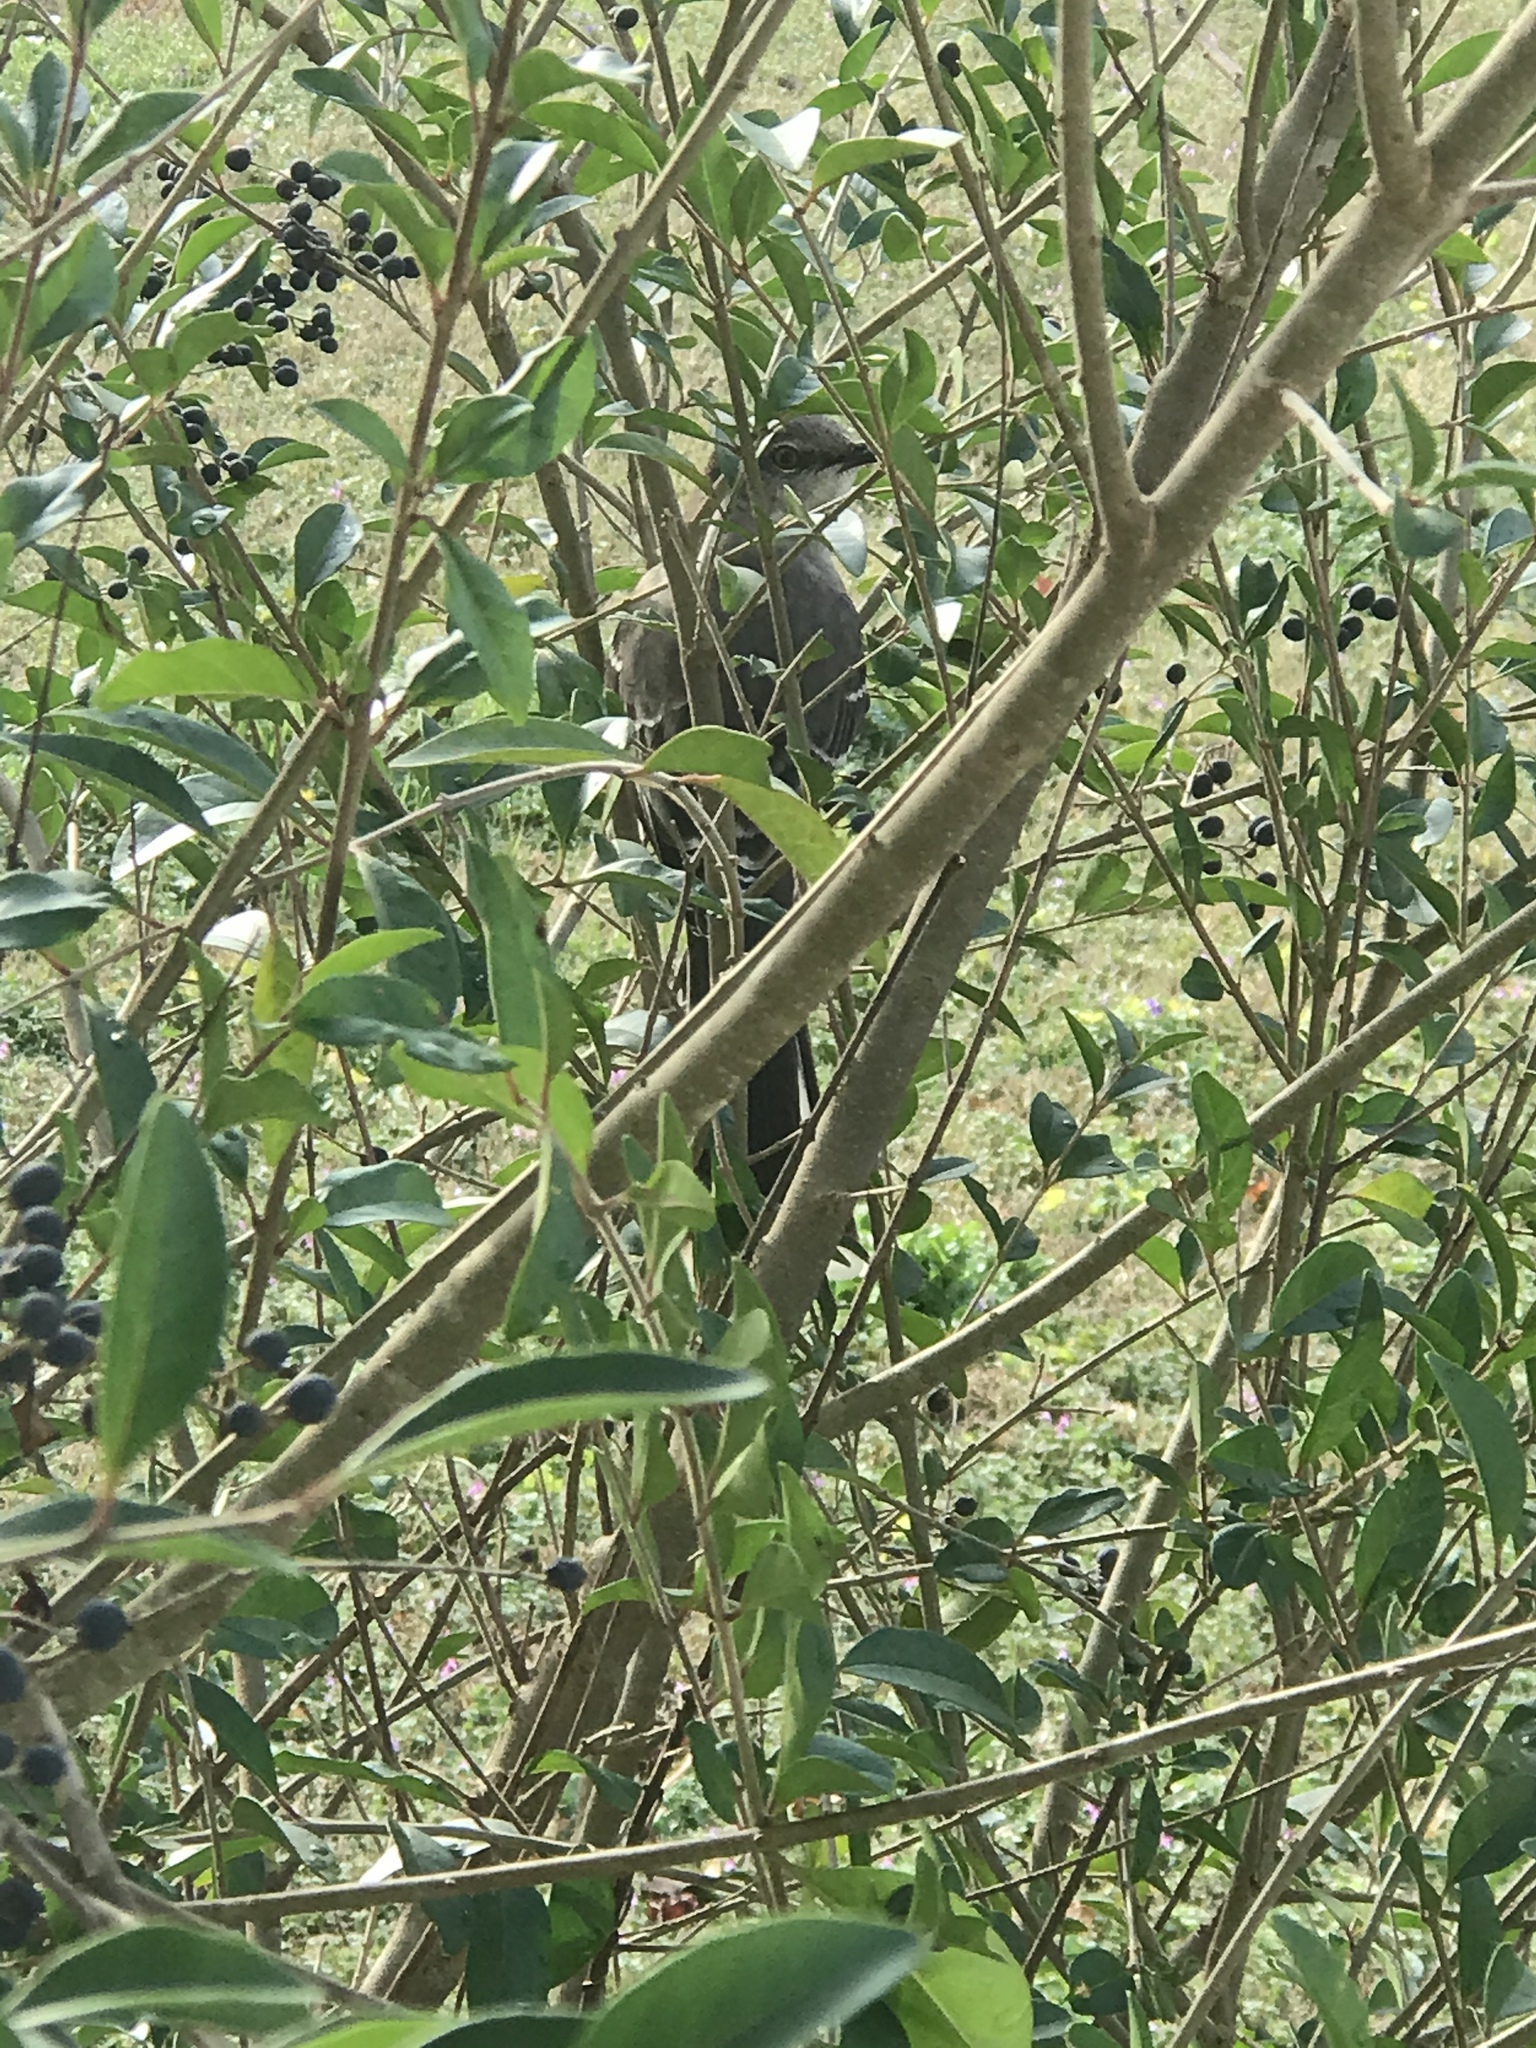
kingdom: Animalia
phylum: Chordata
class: Aves
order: Passeriformes
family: Mimidae
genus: Mimus
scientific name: Mimus polyglottos
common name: Northern mockingbird
